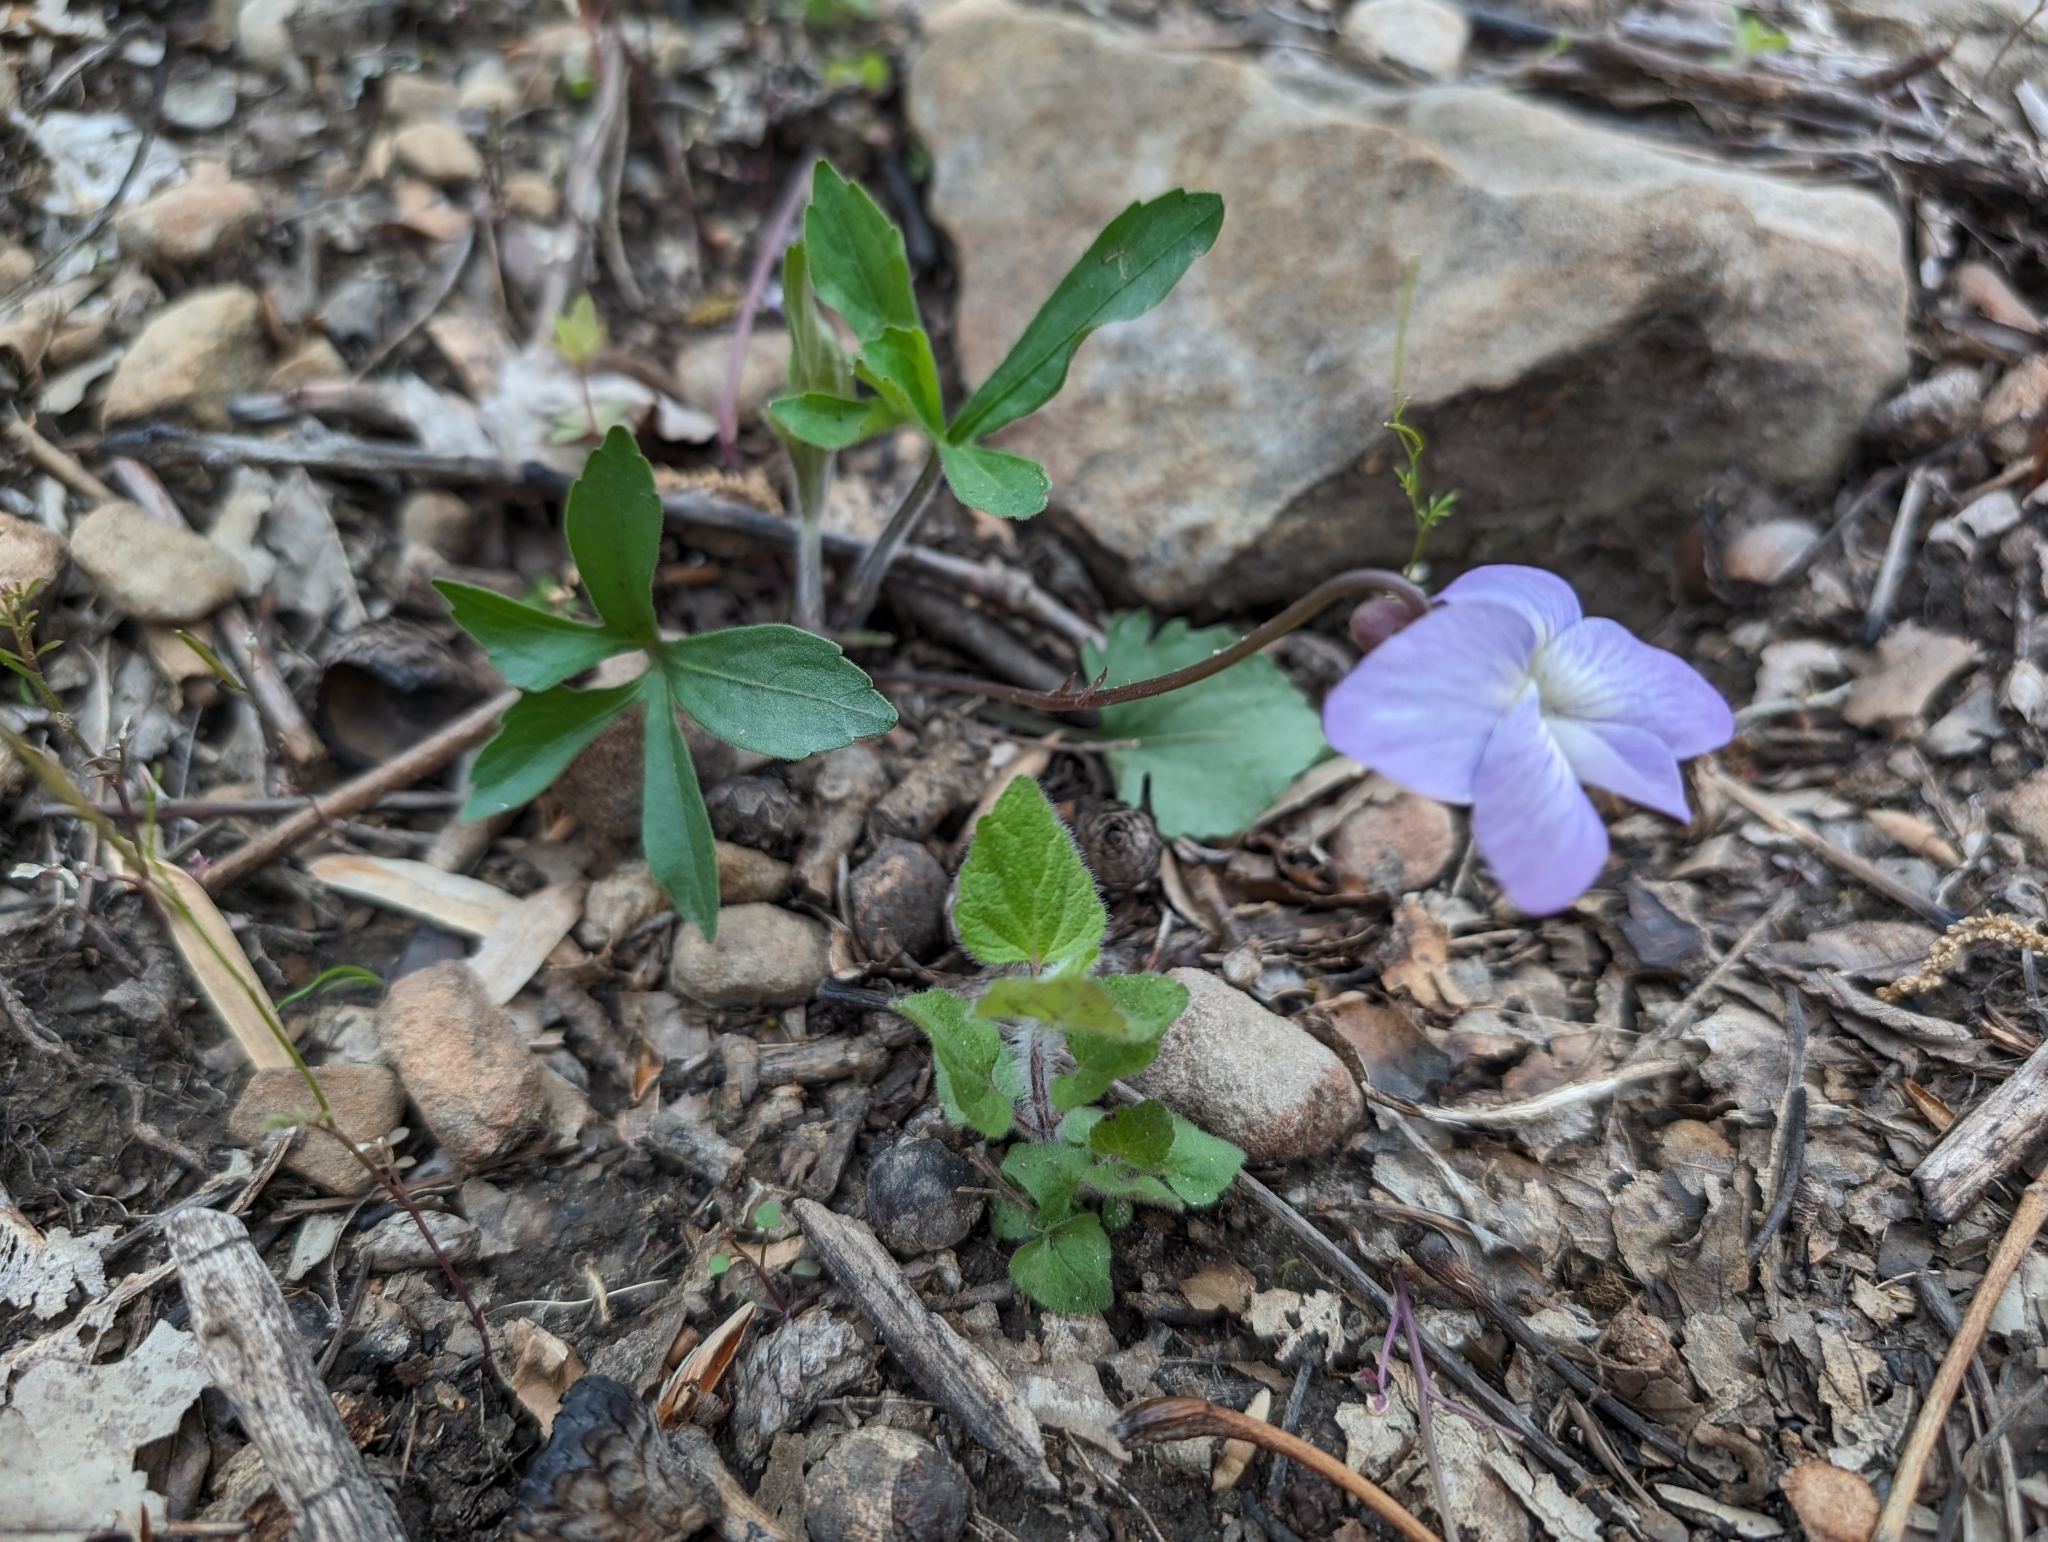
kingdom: Plantae
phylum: Tracheophyta
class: Magnoliopsida
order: Malpighiales
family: Violaceae
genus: Viola
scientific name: Viola palmata
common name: Early blue violet
